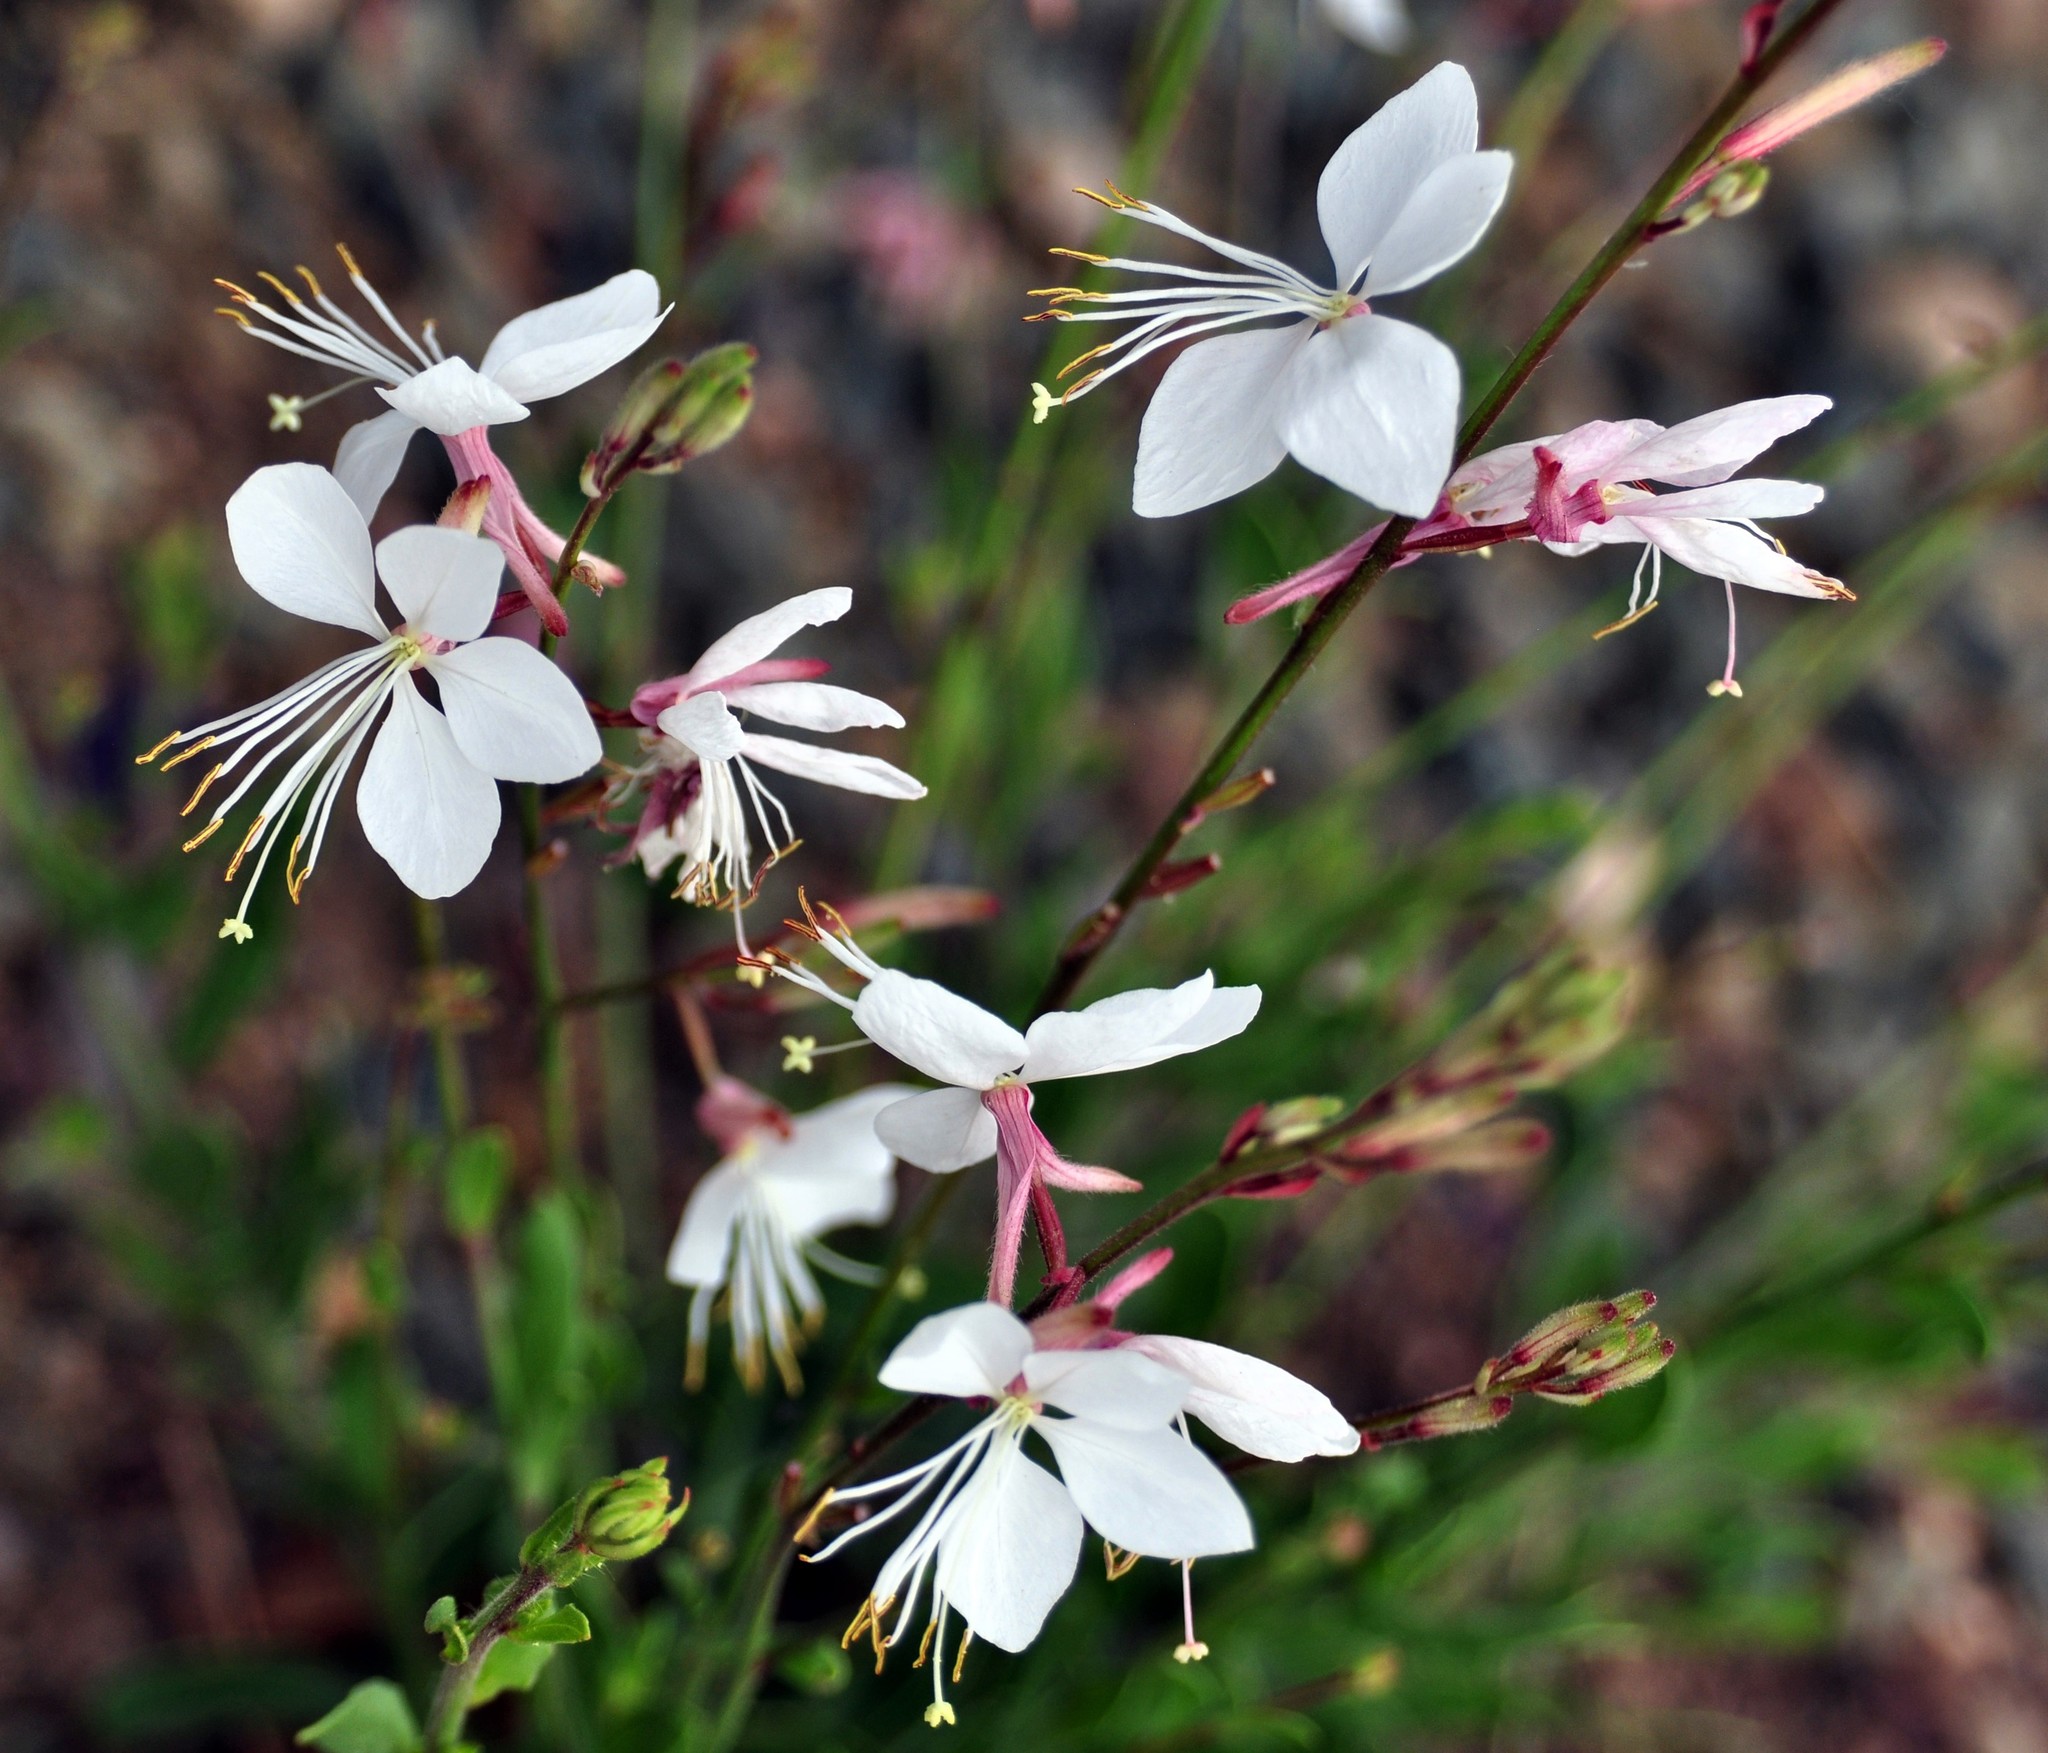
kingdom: Plantae
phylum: Tracheophyta
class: Magnoliopsida
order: Myrtales
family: Onagraceae
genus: Oenothera
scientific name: Oenothera podocarpa
